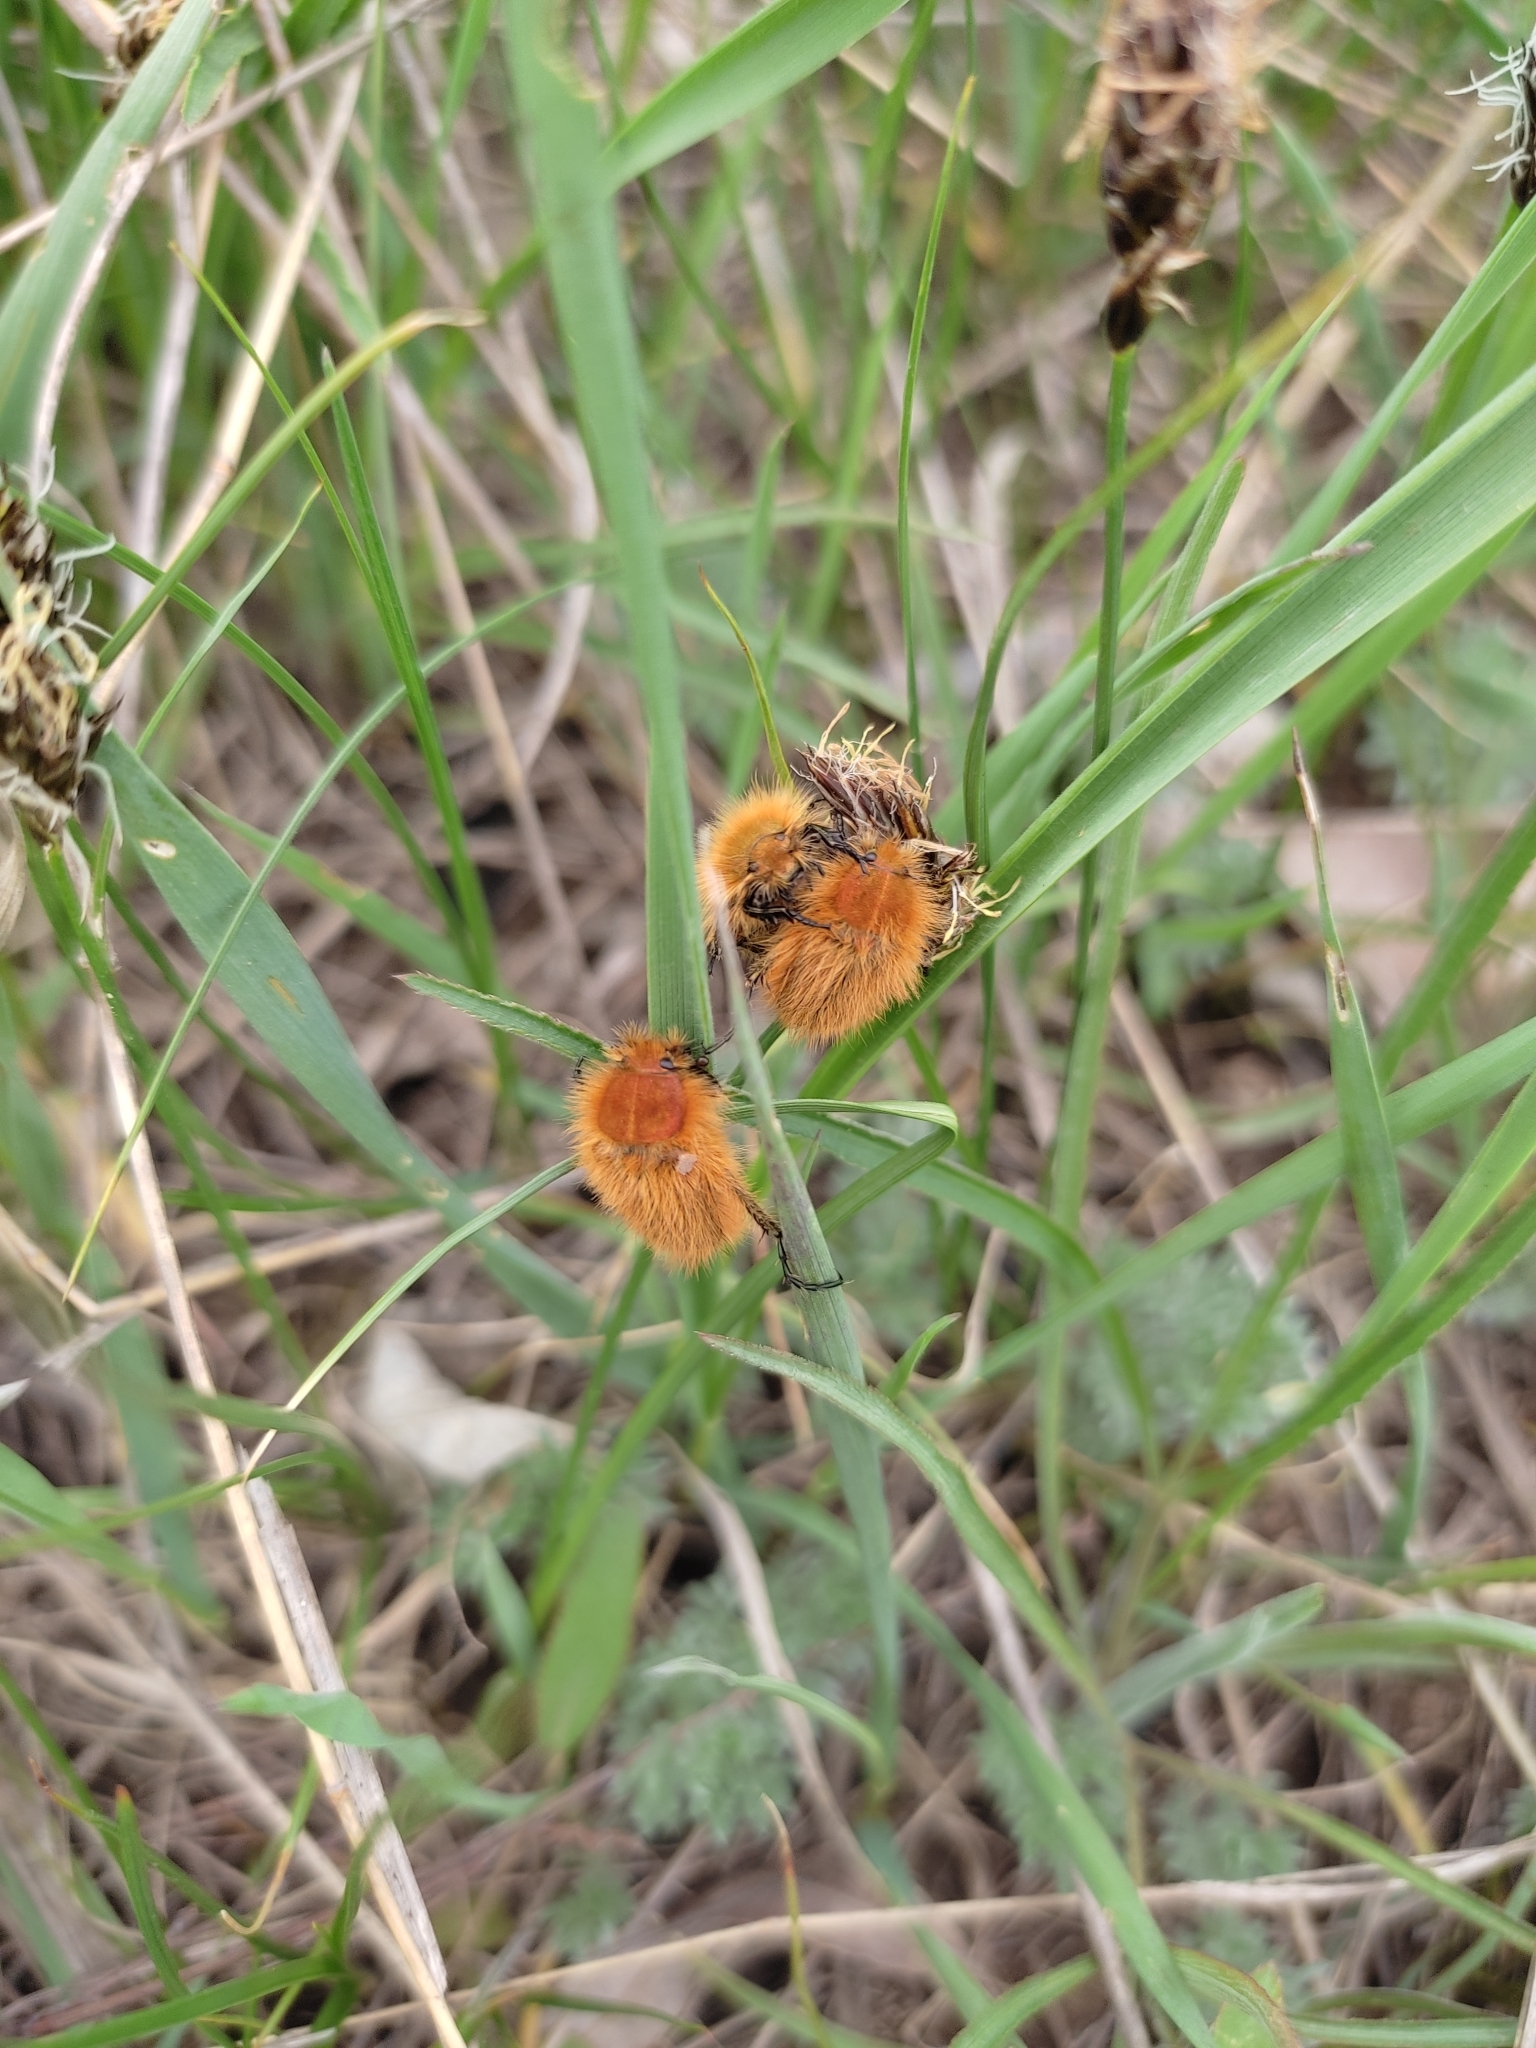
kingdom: Animalia
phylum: Arthropoda
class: Insecta
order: Coleoptera
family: Glaphyridae
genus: Pygopleurus
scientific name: Pygopleurus vulpes
